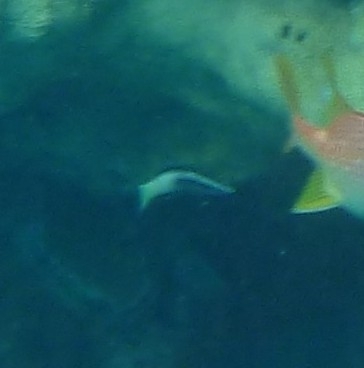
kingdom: Animalia
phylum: Chordata
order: Perciformes
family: Labridae
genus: Labroides
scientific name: Labroides bicolor
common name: Bicolor cleaner wrasse
